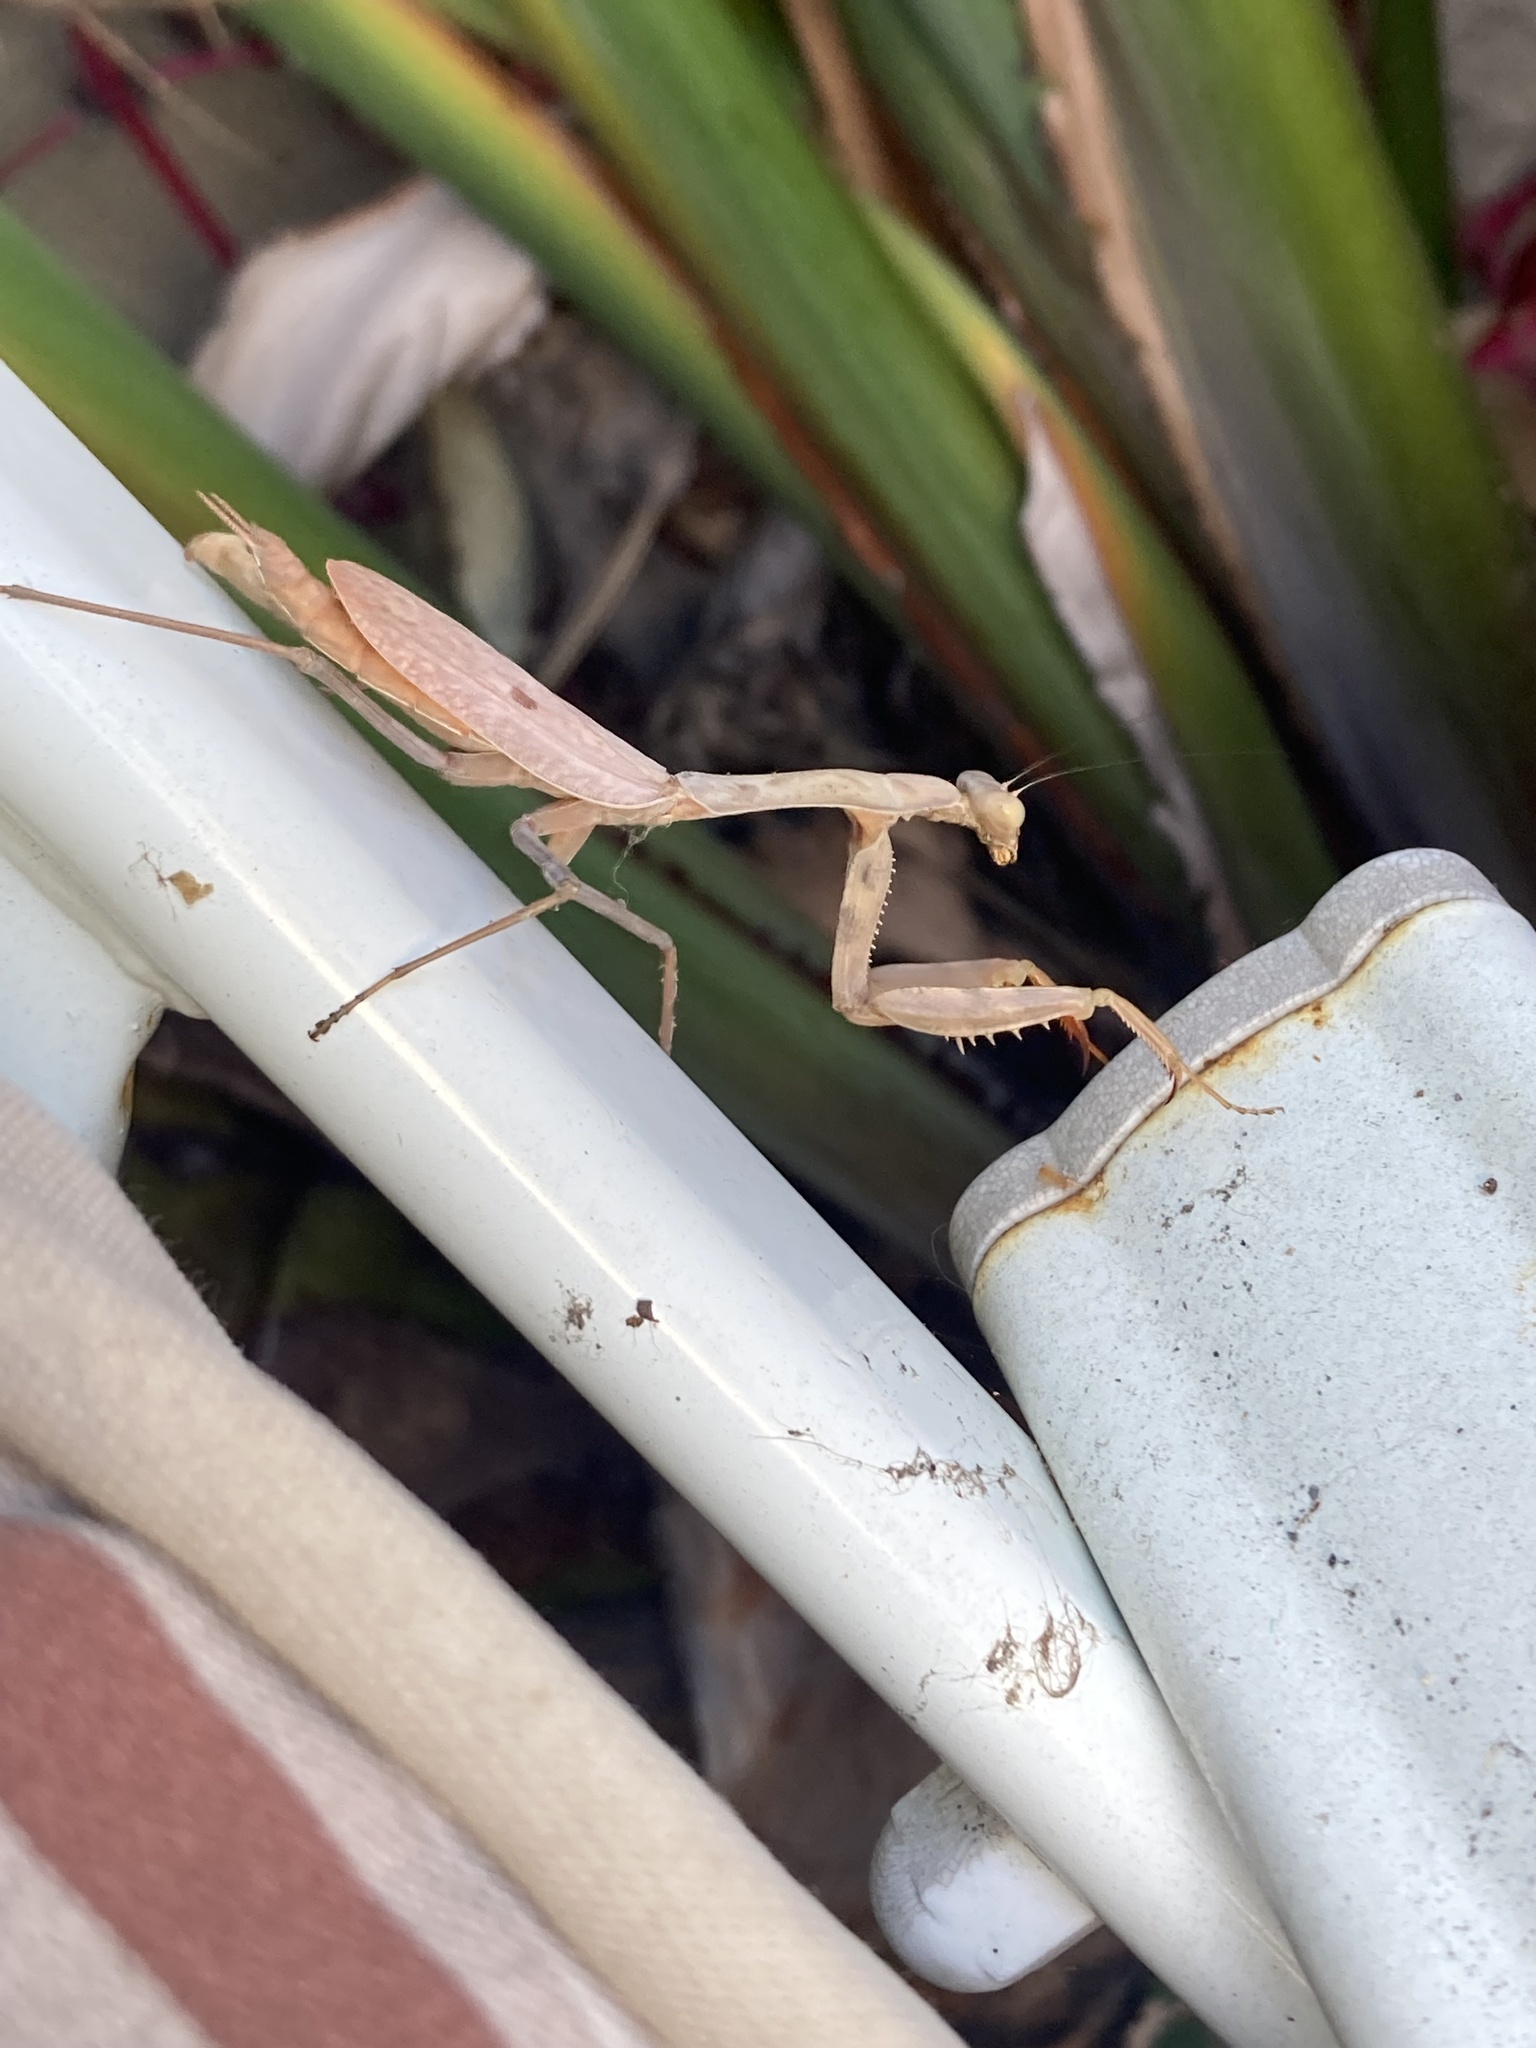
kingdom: Animalia
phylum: Arthropoda
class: Insecta
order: Mantodea
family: Mantidae
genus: Stagmomantis
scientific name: Stagmomantis limbata
